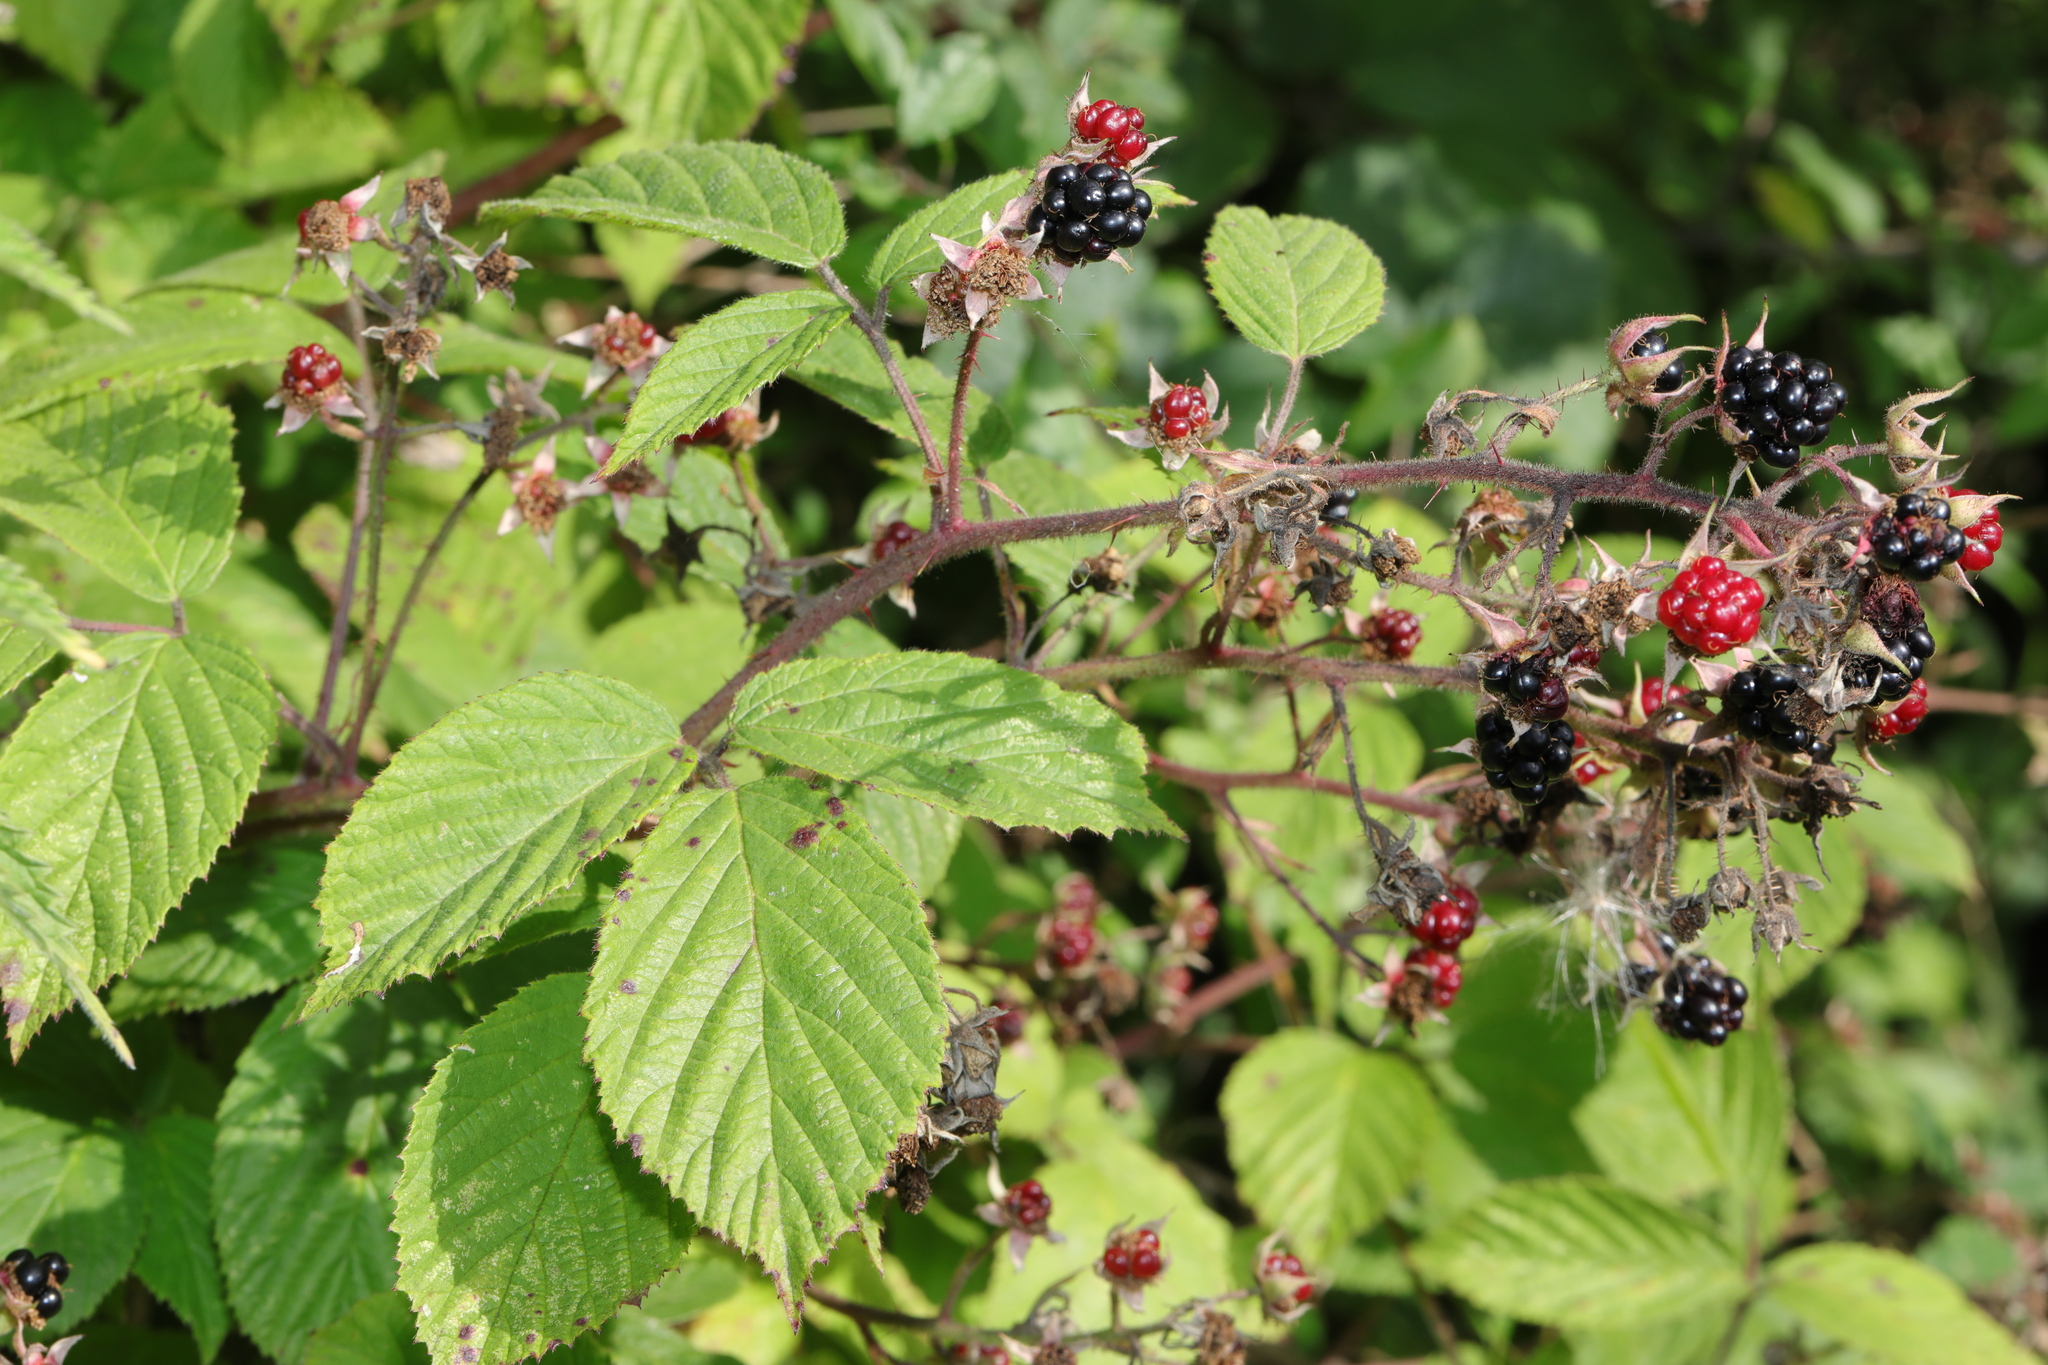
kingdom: Plantae
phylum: Tracheophyta
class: Magnoliopsida
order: Rosales
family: Rosaceae
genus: Rubus
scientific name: Rubus vestitus
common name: European blackberry
